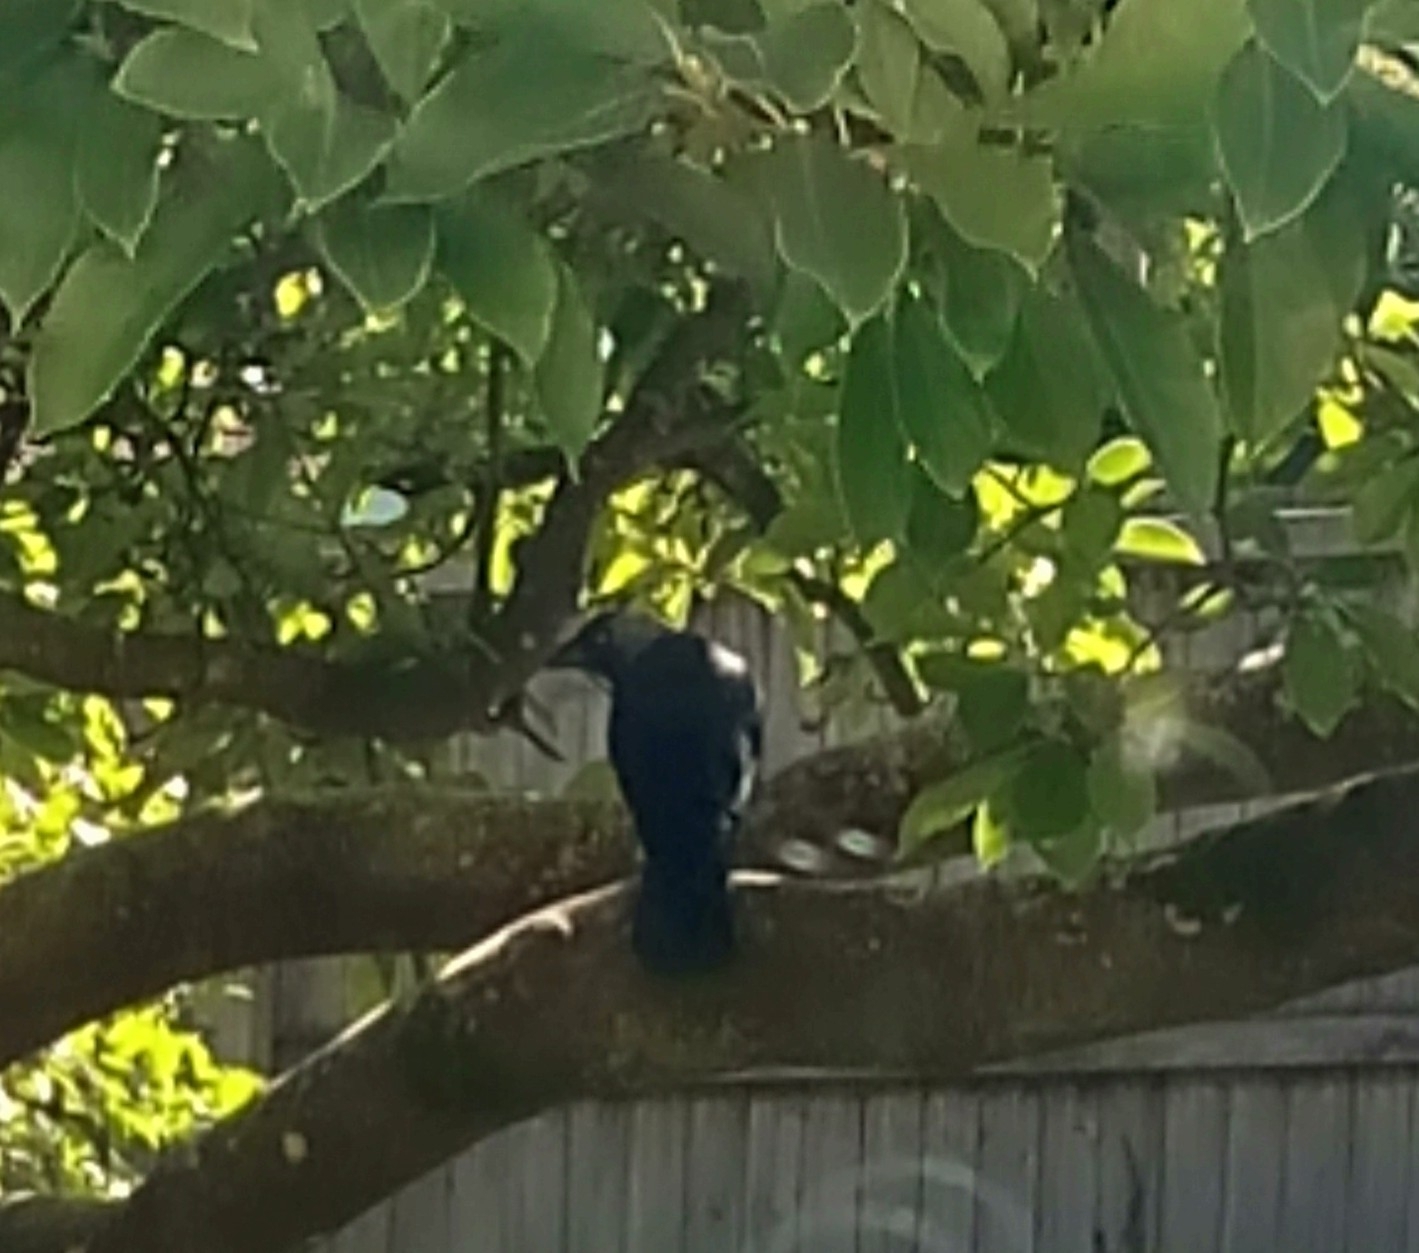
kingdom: Animalia
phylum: Chordata
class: Aves
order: Passeriformes
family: Corvidae
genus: Coloeus
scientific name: Coloeus monedula
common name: Western jackdaw
